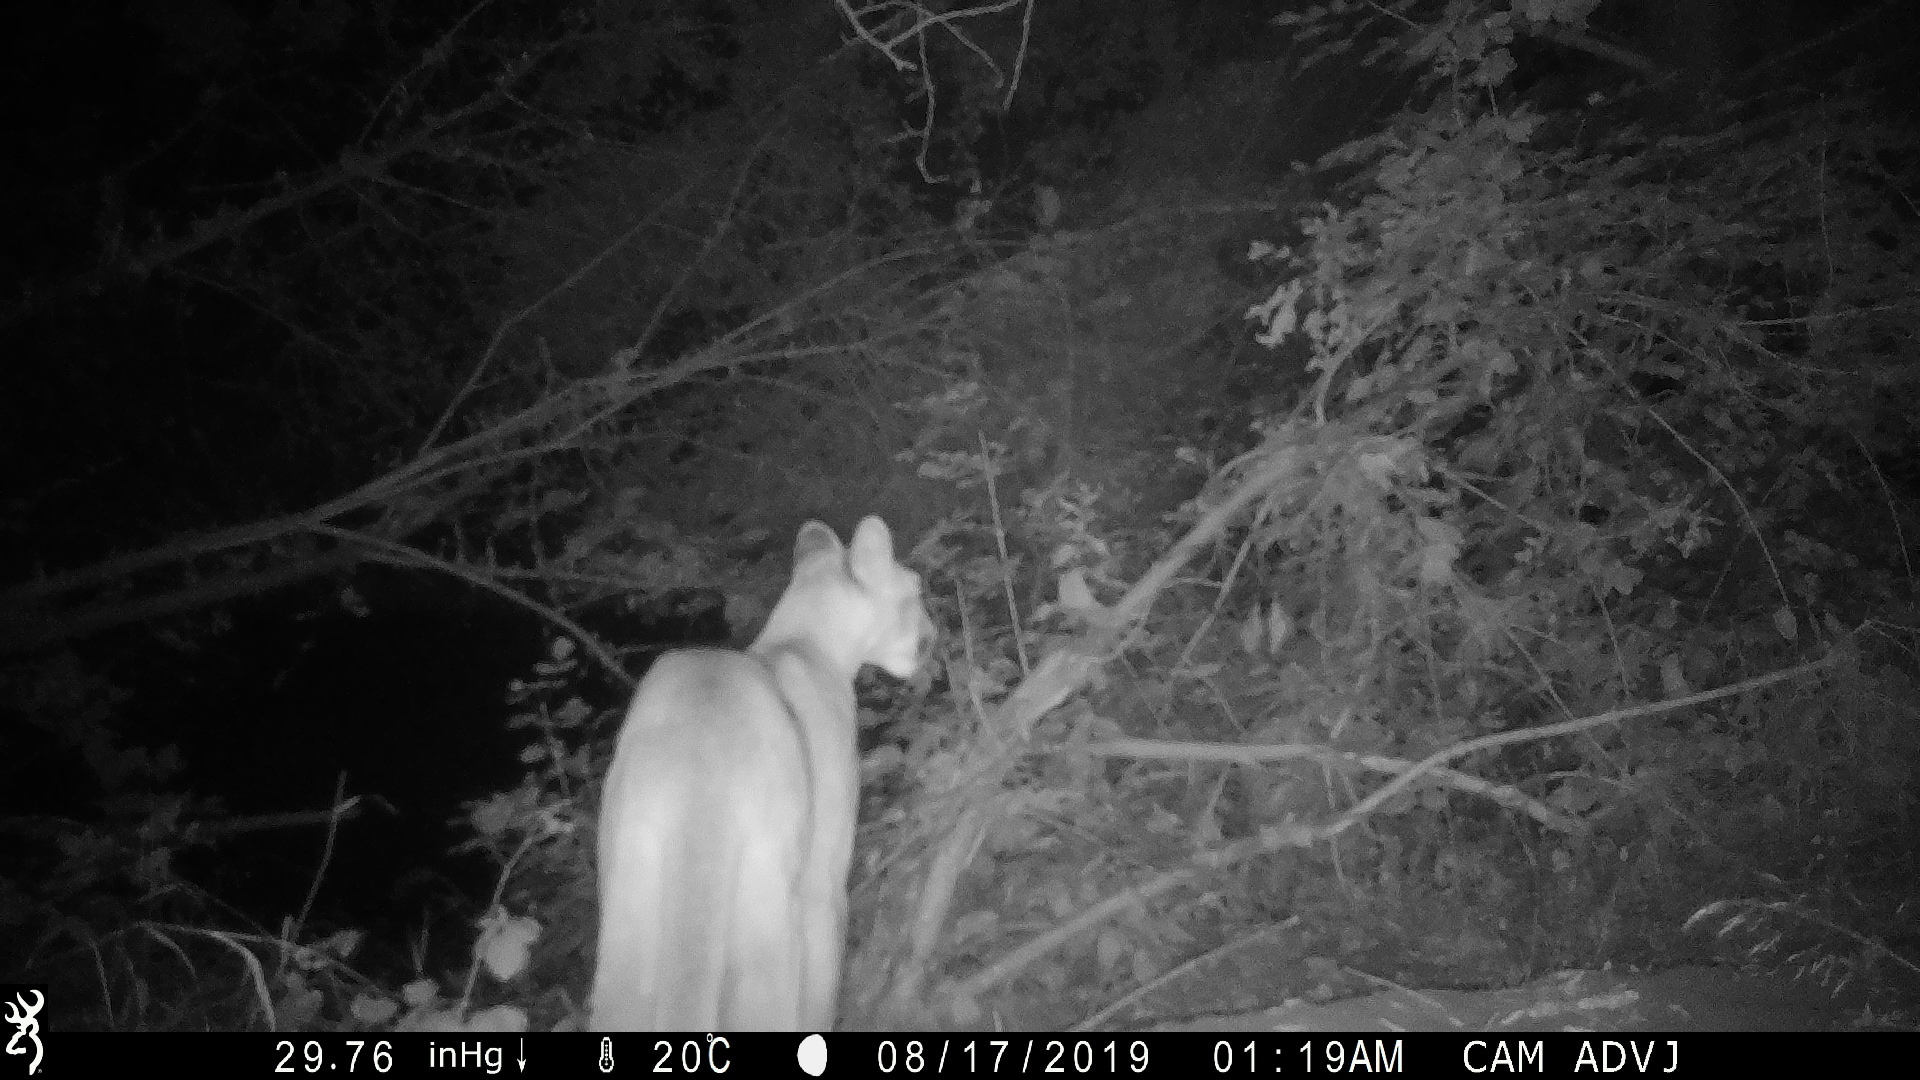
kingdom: Animalia
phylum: Chordata
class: Mammalia
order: Carnivora
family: Felidae
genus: Puma
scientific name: Puma concolor
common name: Puma
